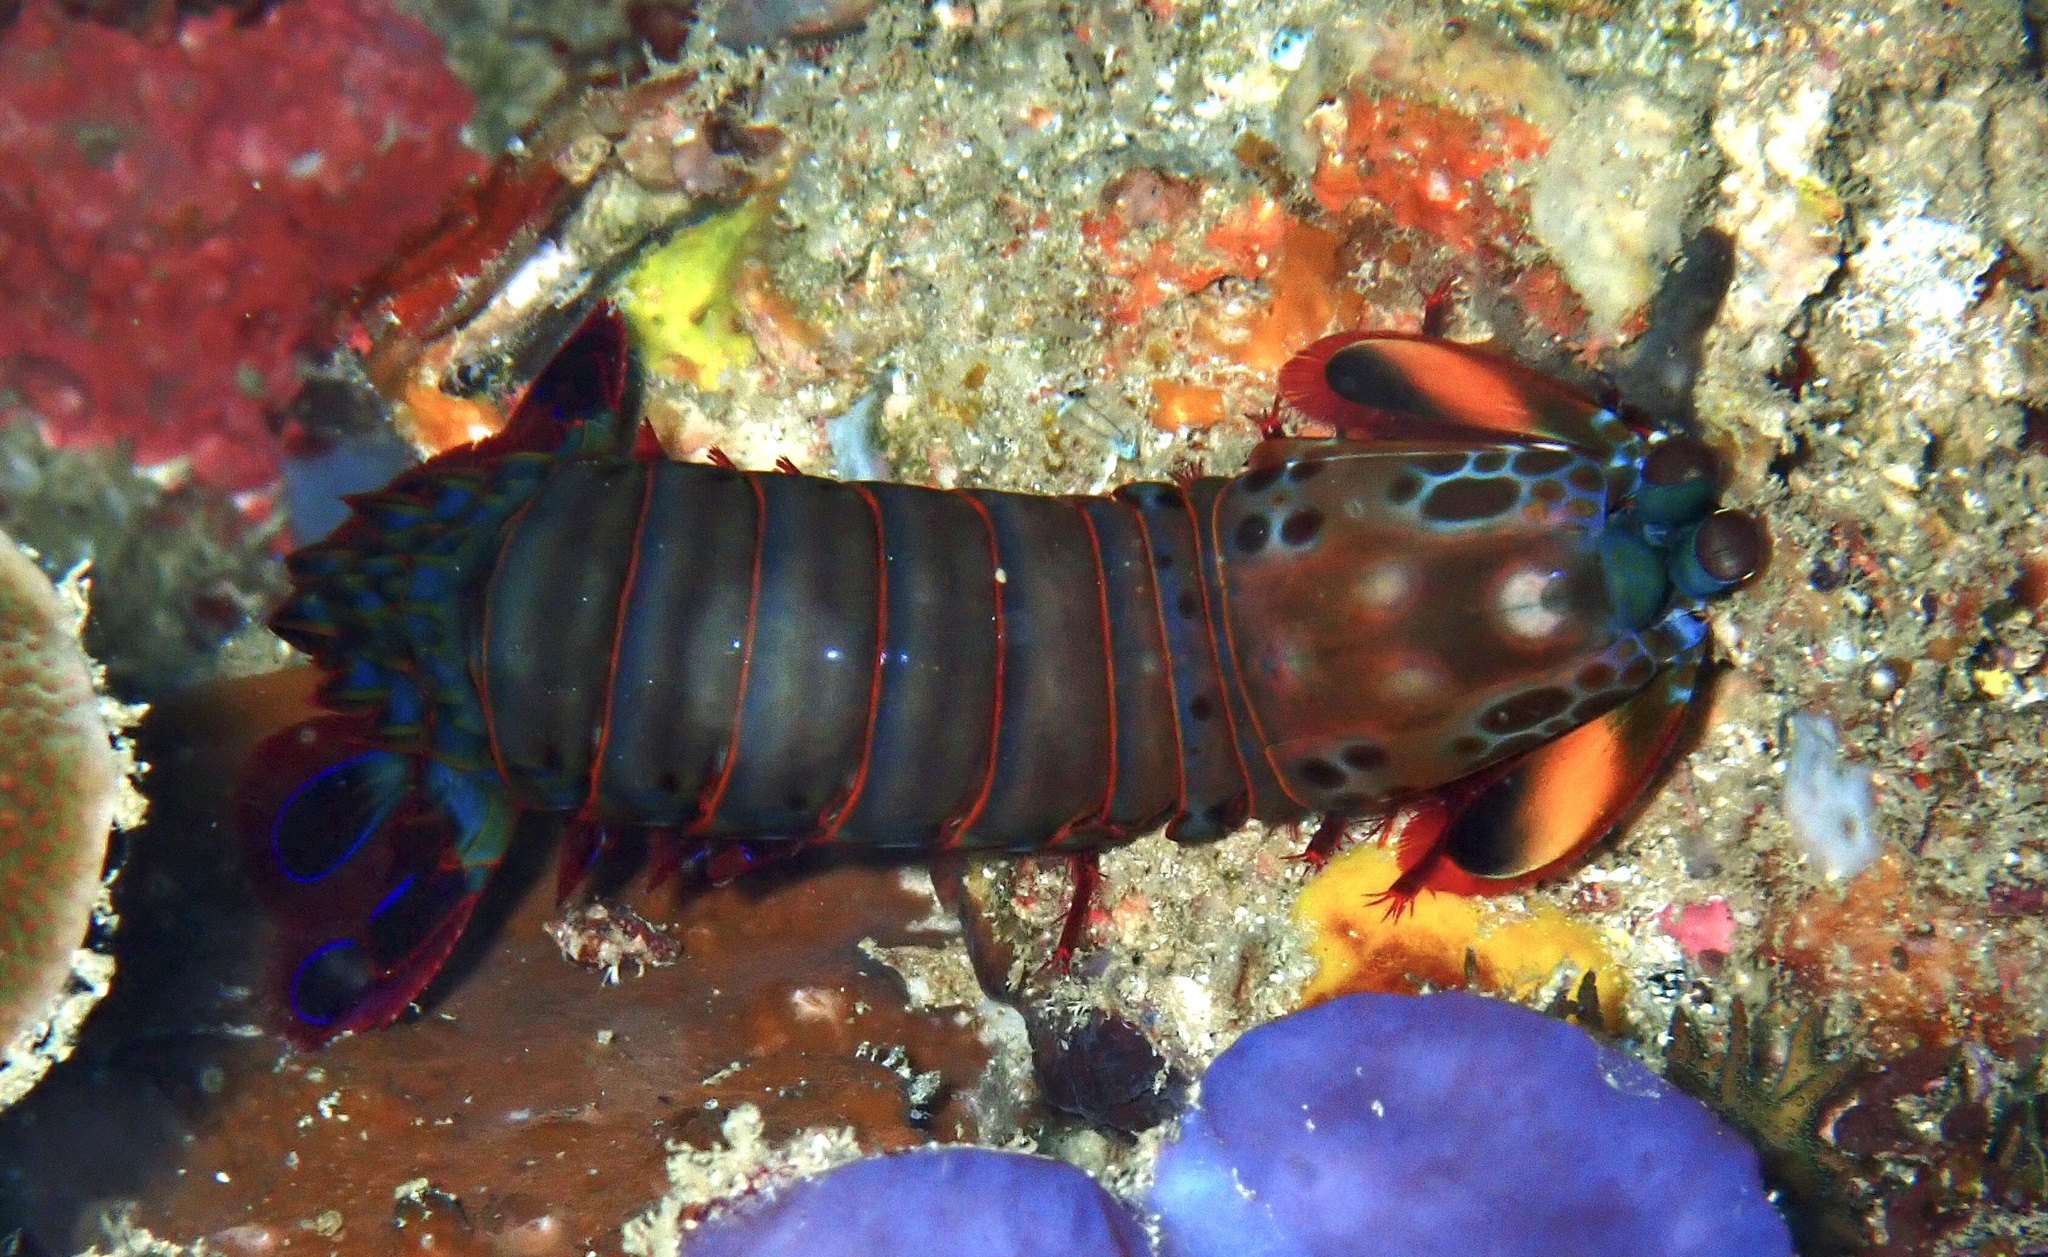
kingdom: Animalia
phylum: Arthropoda
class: Malacostraca
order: Stomatopoda
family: Odontodactylidae
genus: Odontodactylus
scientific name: Odontodactylus scyllarus
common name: Peacock mantis shrimp
